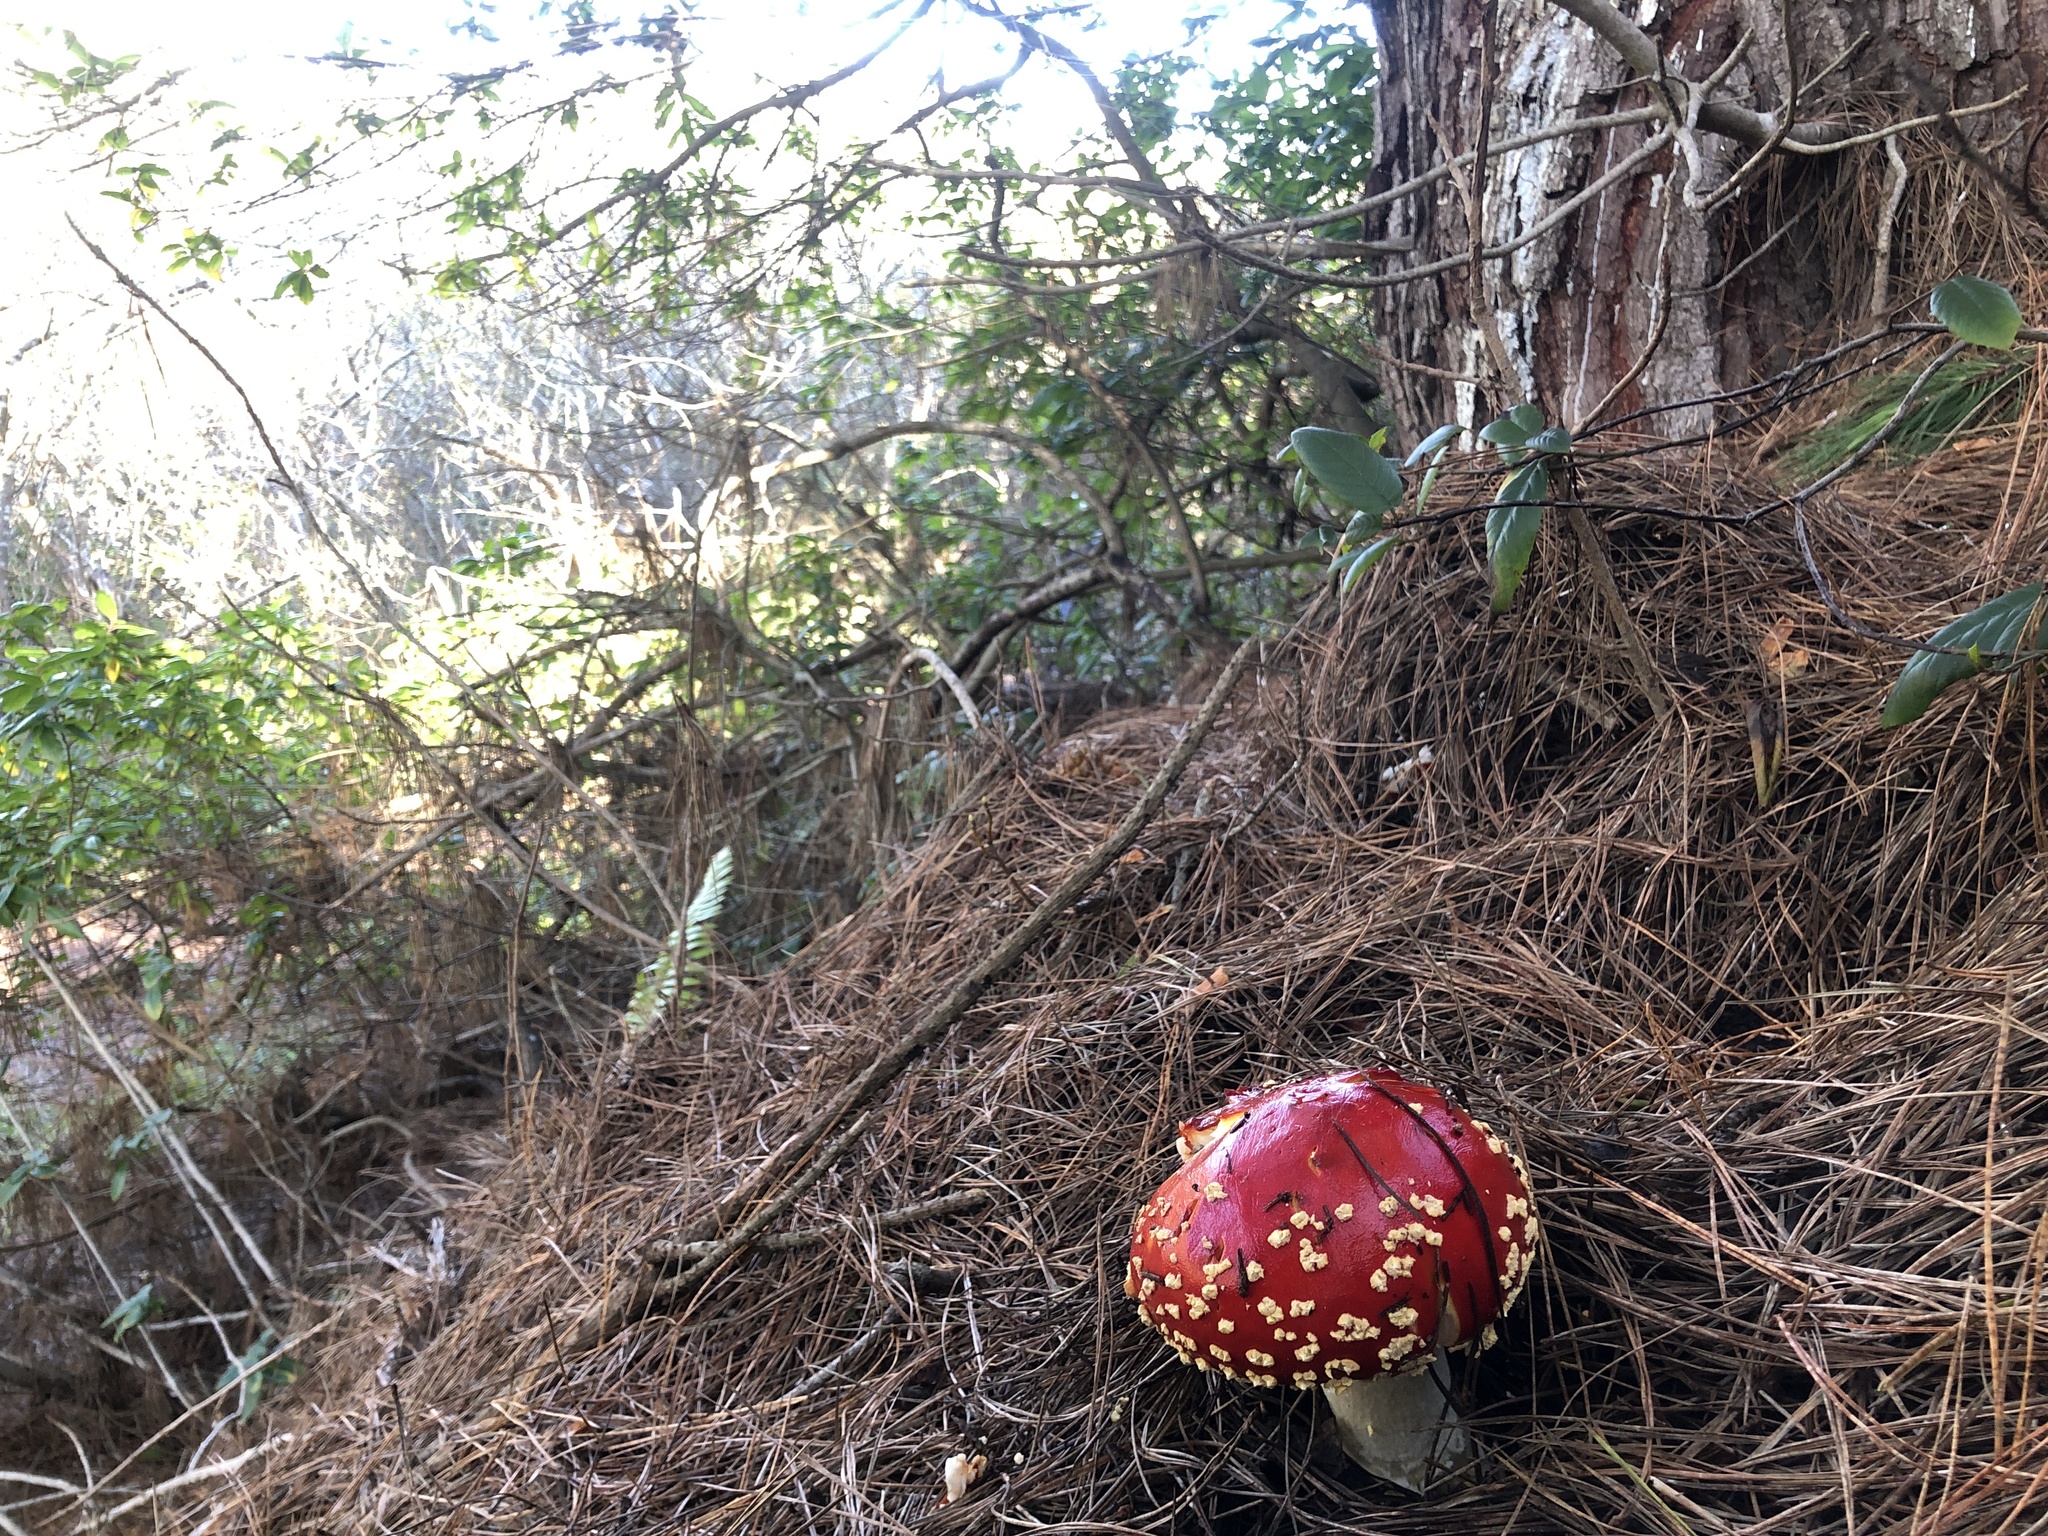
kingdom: Fungi
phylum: Basidiomycota
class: Agaricomycetes
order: Agaricales
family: Amanitaceae
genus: Amanita
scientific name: Amanita muscaria
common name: Fly agaric
